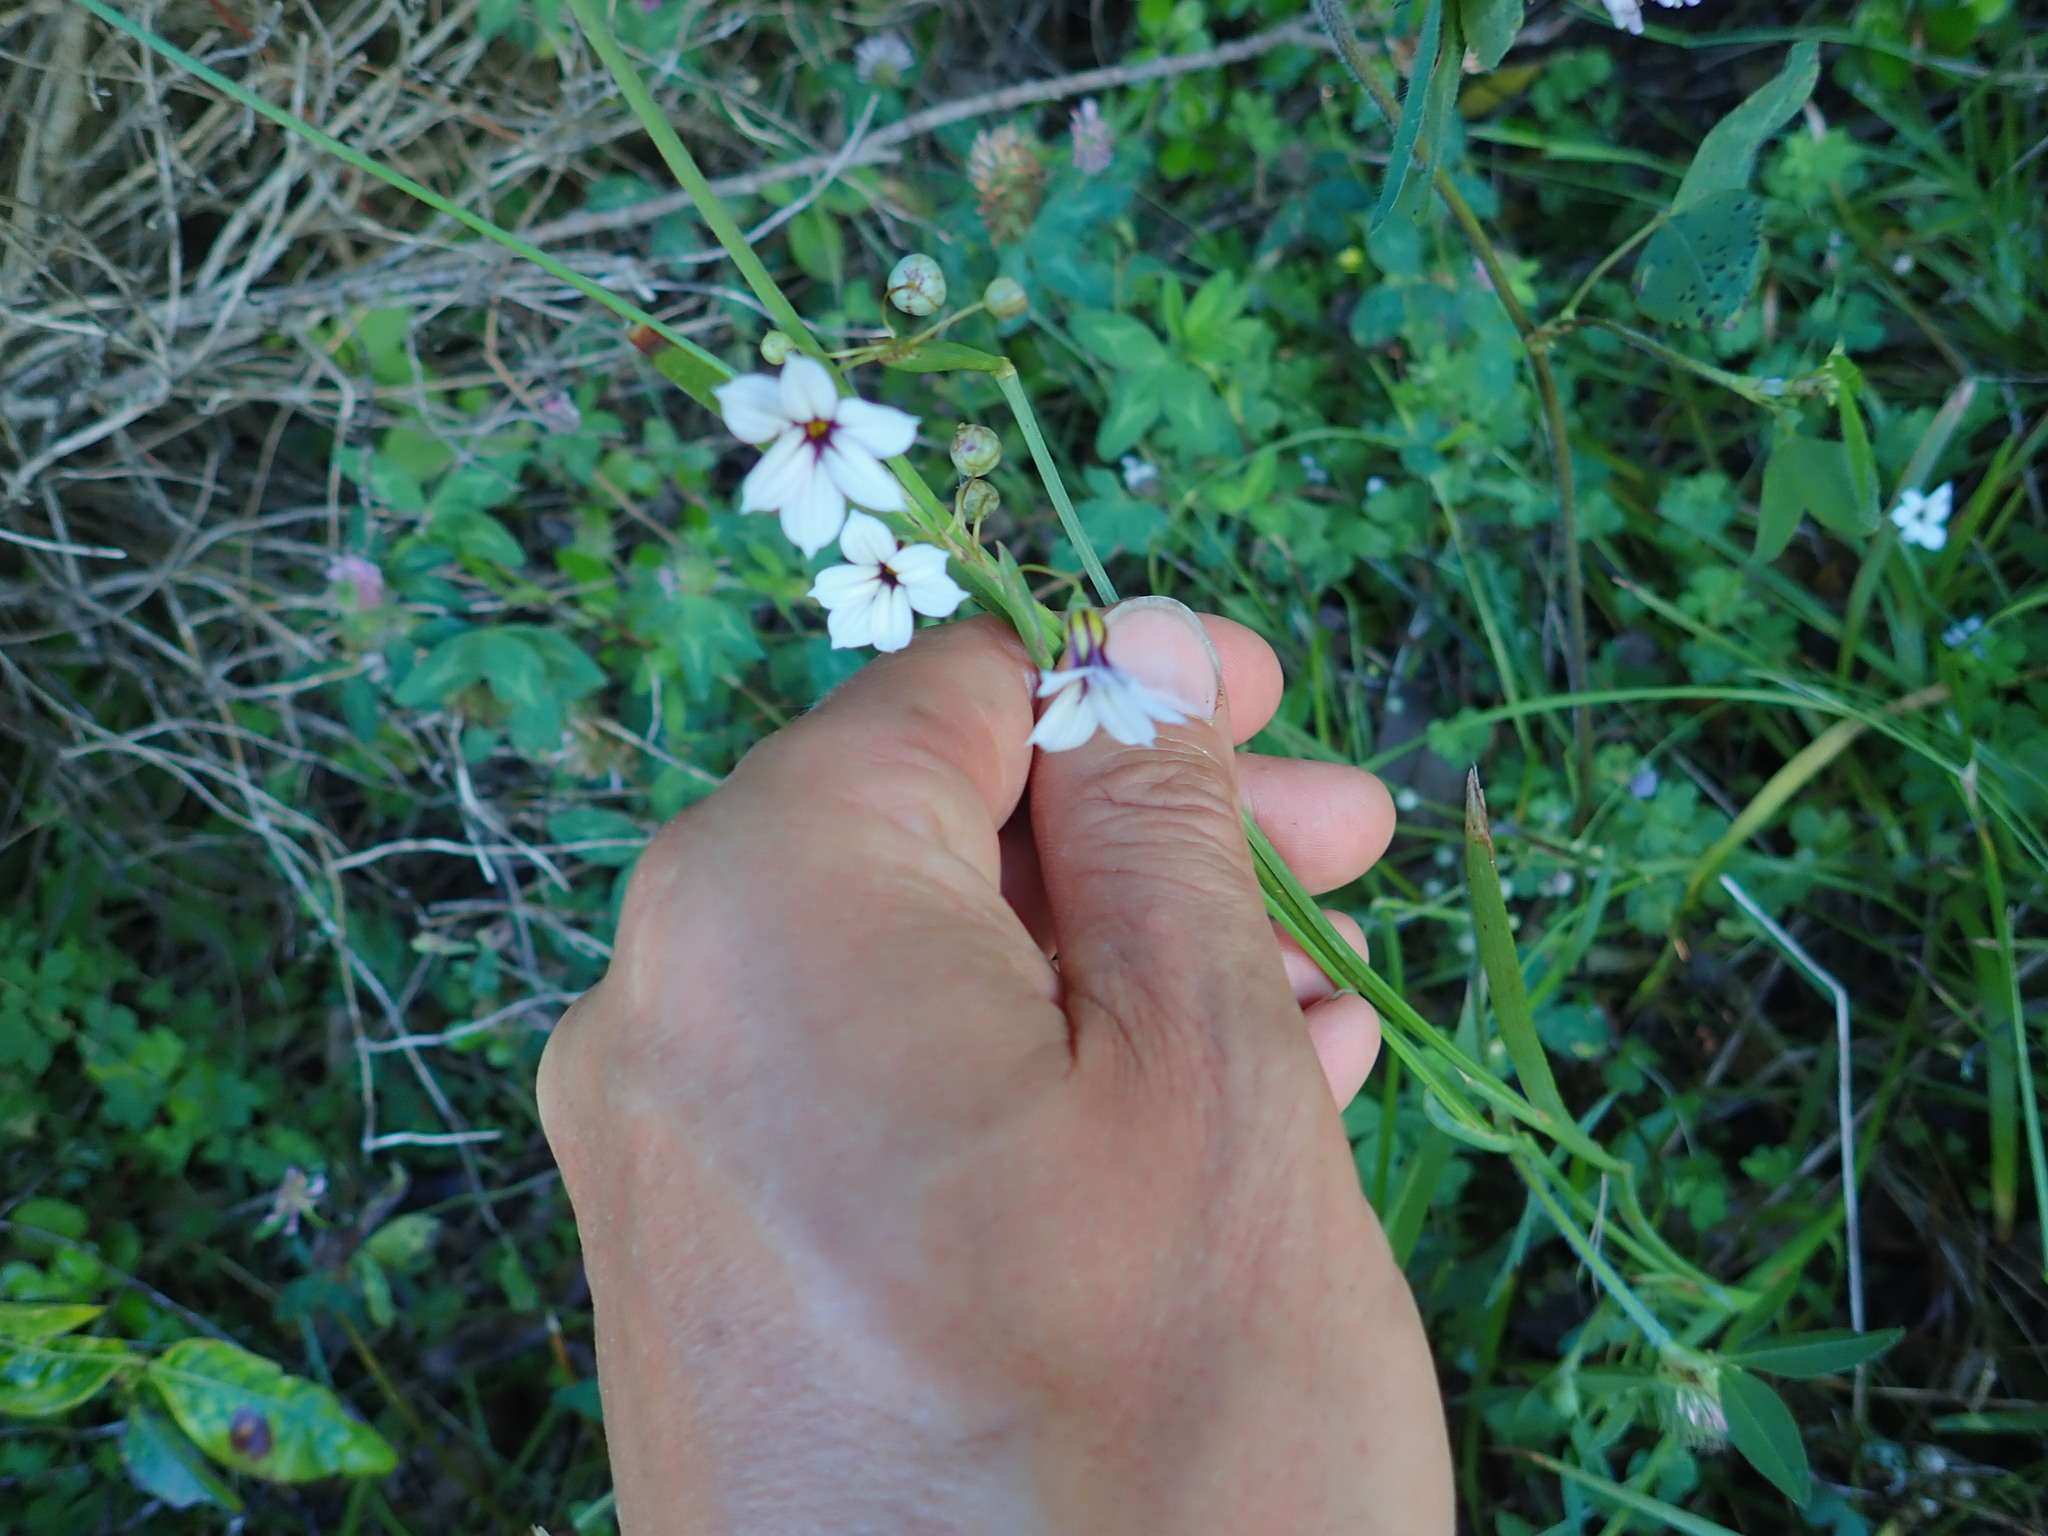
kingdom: Plantae
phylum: Tracheophyta
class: Liliopsida
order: Asparagales
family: Iridaceae
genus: Sisyrinchium
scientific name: Sisyrinchium micranthum
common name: Bermuda pigroot
